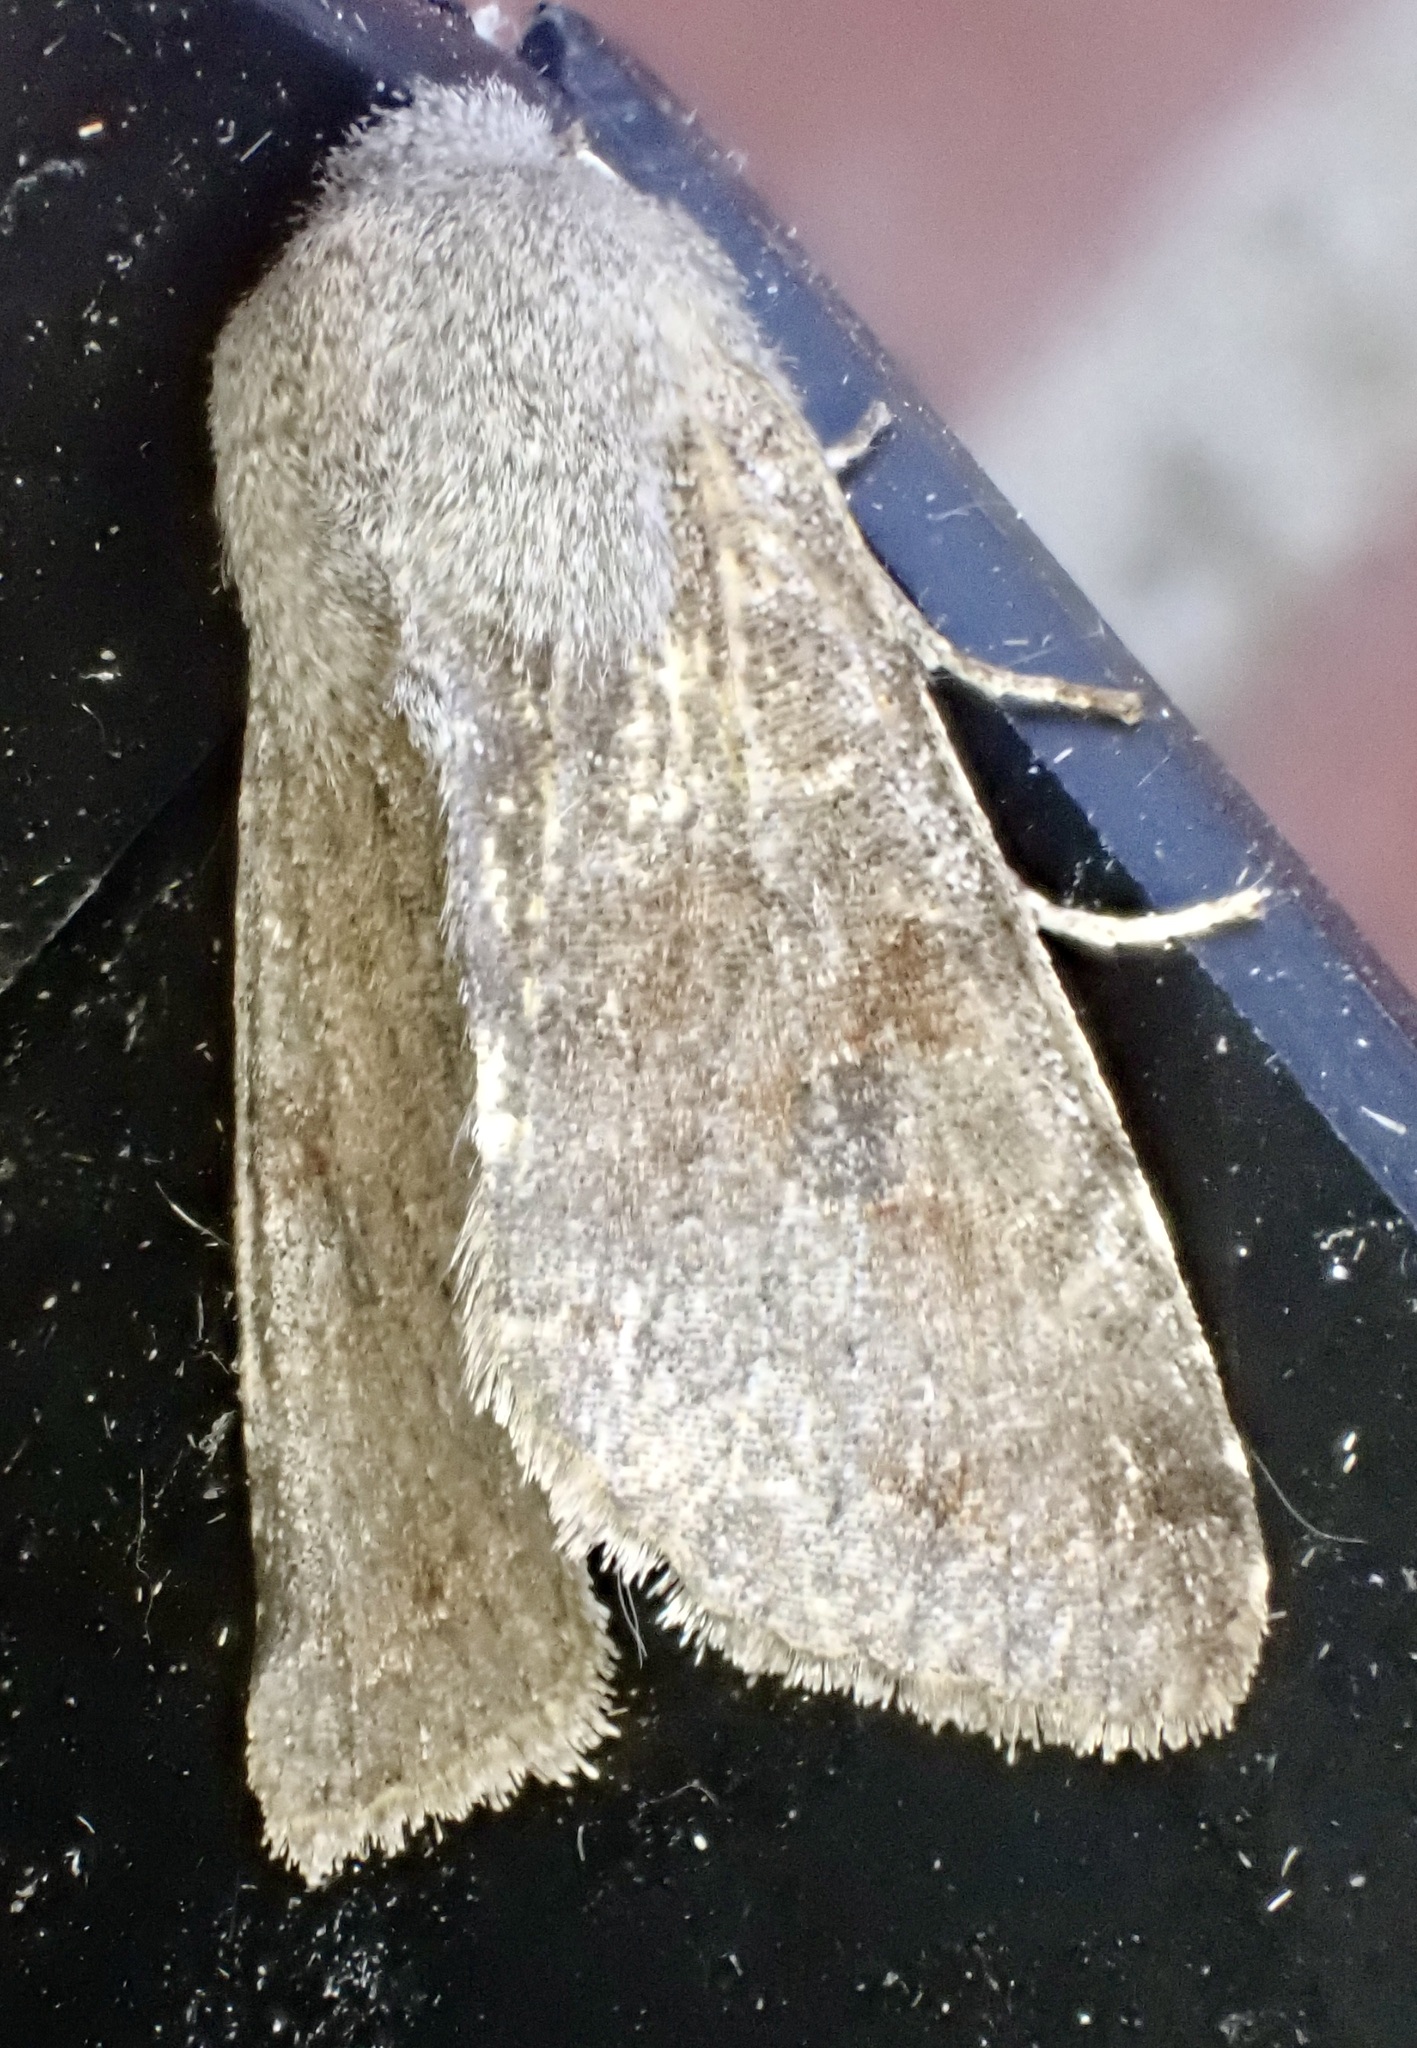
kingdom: Animalia
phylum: Arthropoda
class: Insecta
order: Lepidoptera
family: Noctuidae
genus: Orthosia
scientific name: Orthosia incerta
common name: Clouded drab
